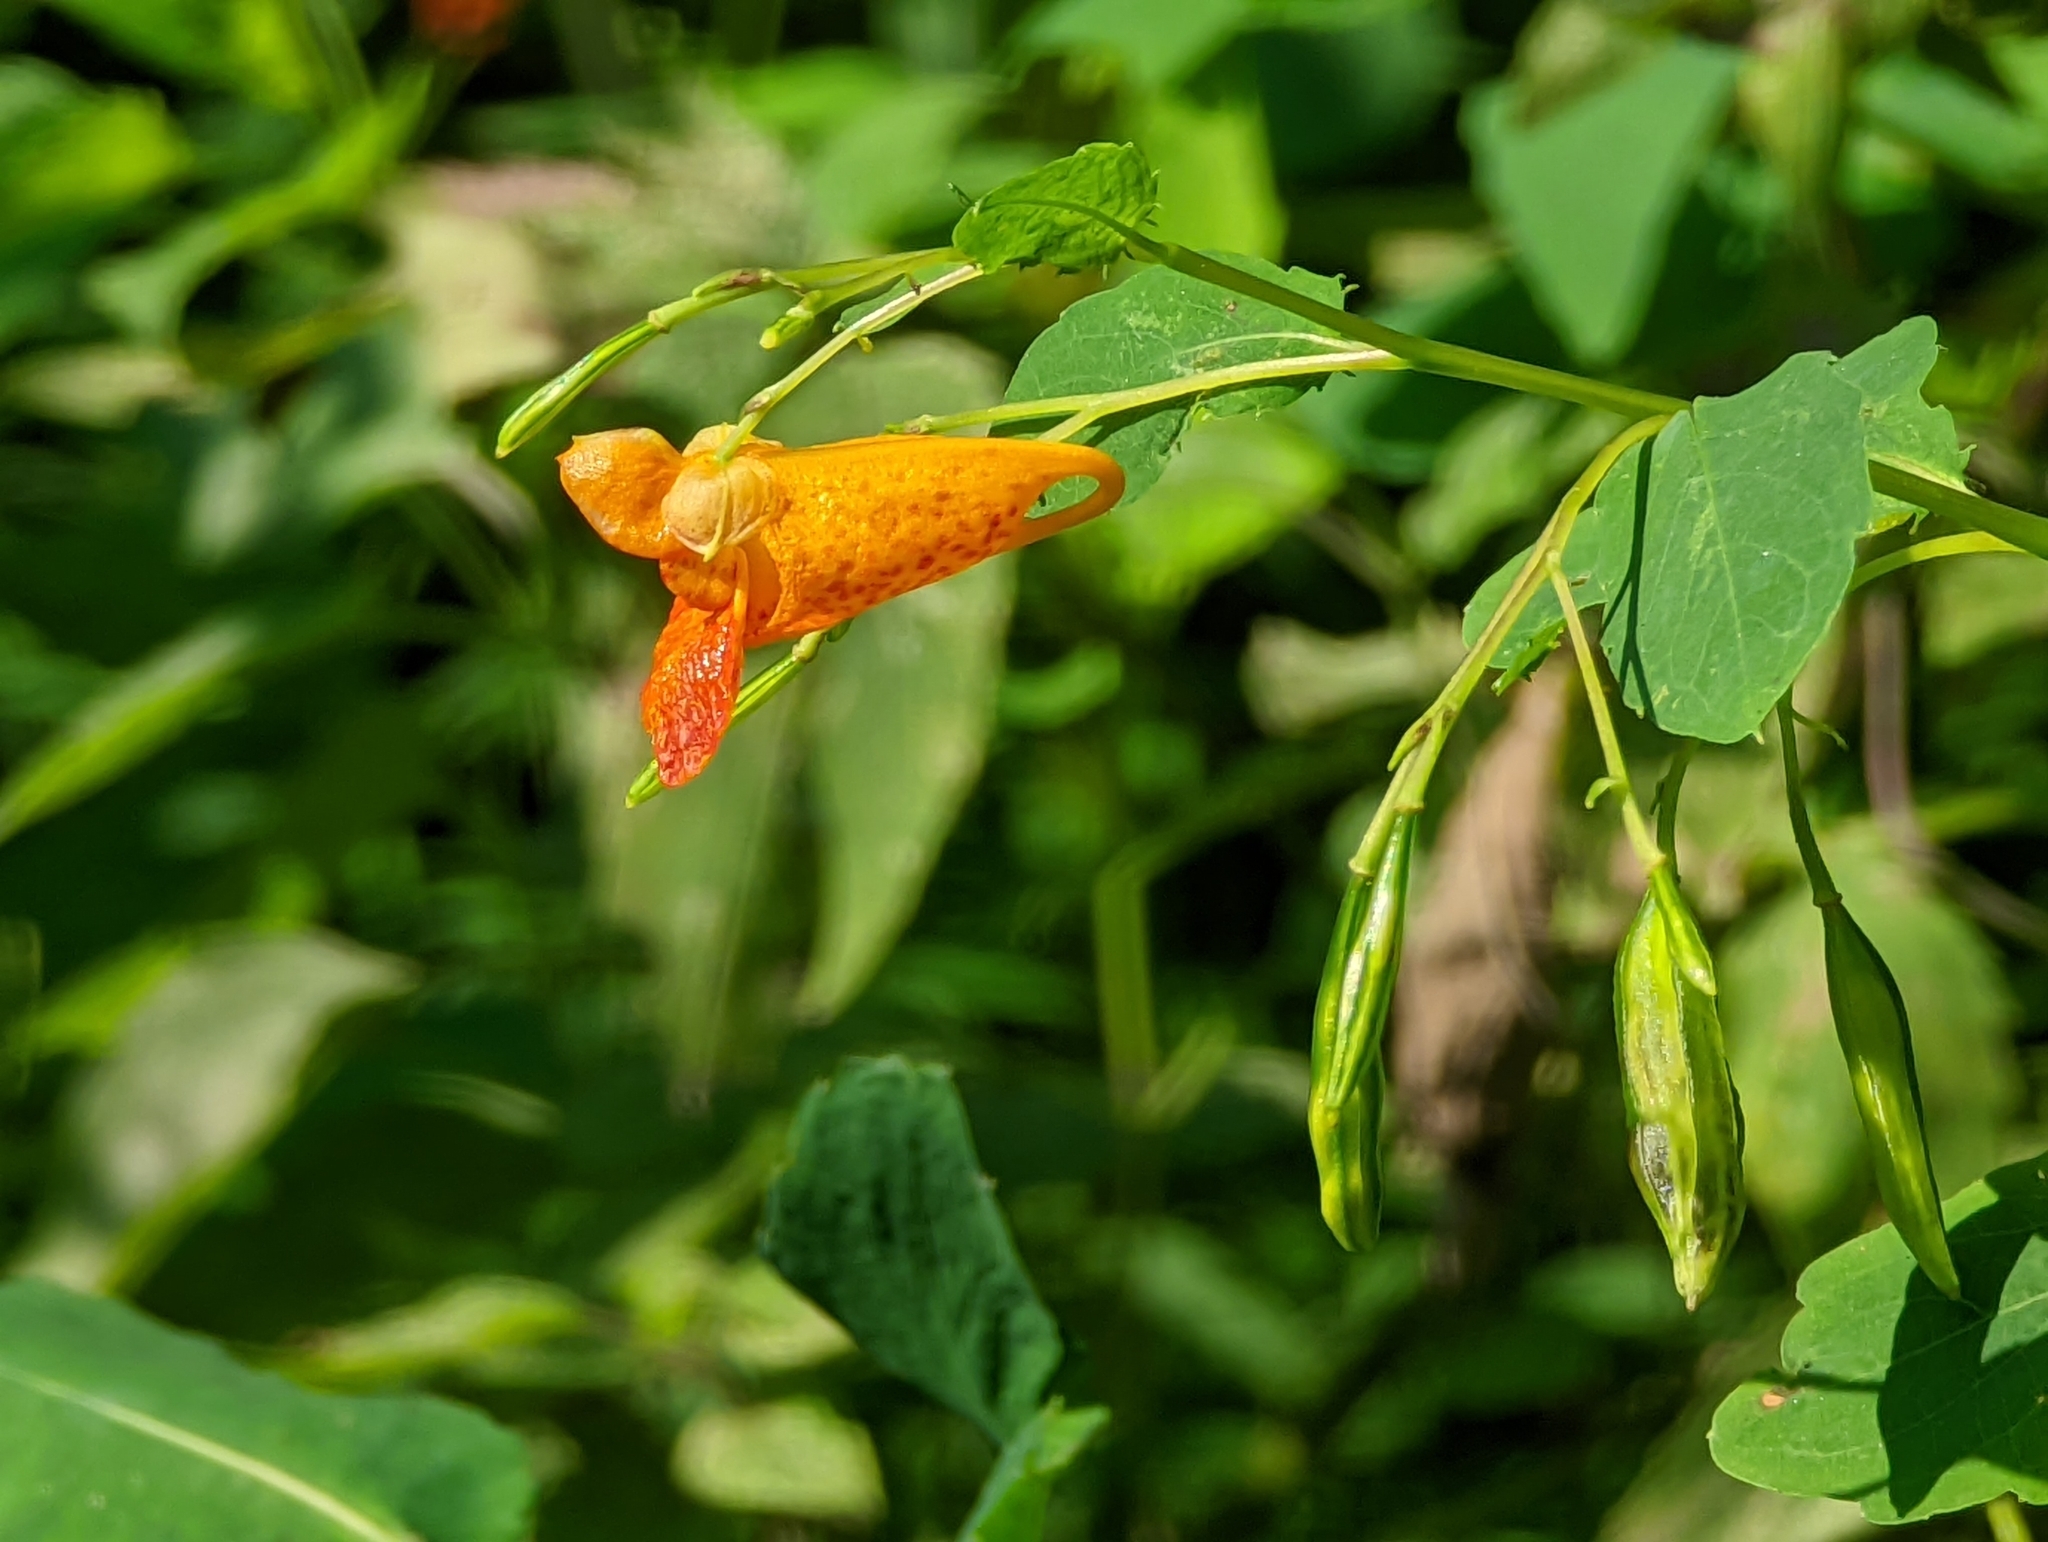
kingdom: Plantae
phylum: Tracheophyta
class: Magnoliopsida
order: Ericales
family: Balsaminaceae
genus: Impatiens
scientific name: Impatiens capensis
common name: Orange balsam
